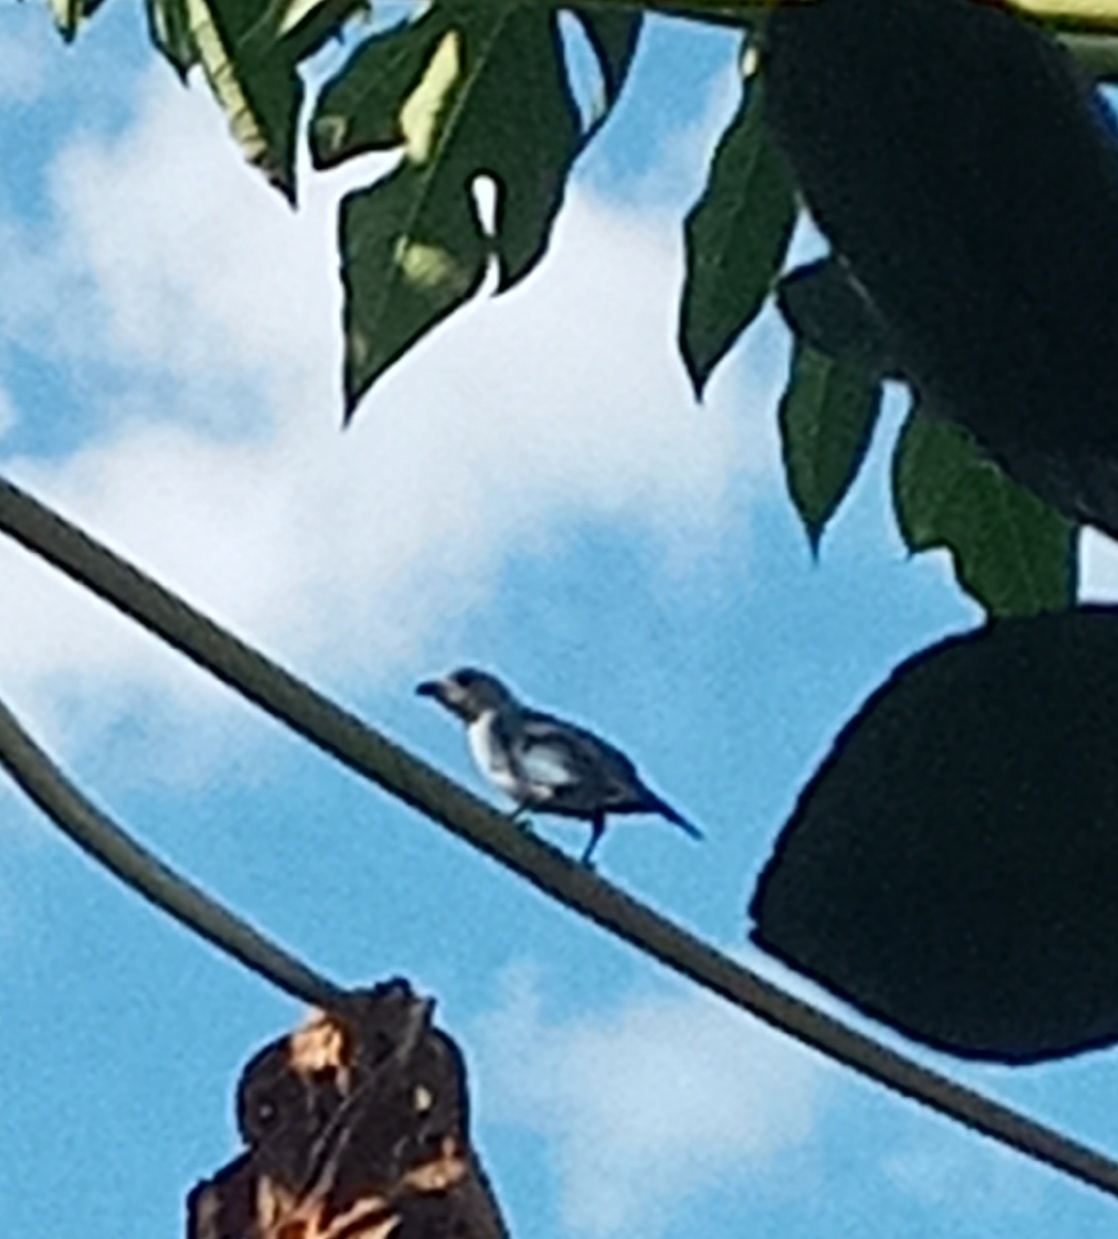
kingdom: Animalia
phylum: Chordata
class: Aves
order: Passeriformes
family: Thraupidae
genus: Thraupis
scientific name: Thraupis episcopus
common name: Blue-grey tanager
